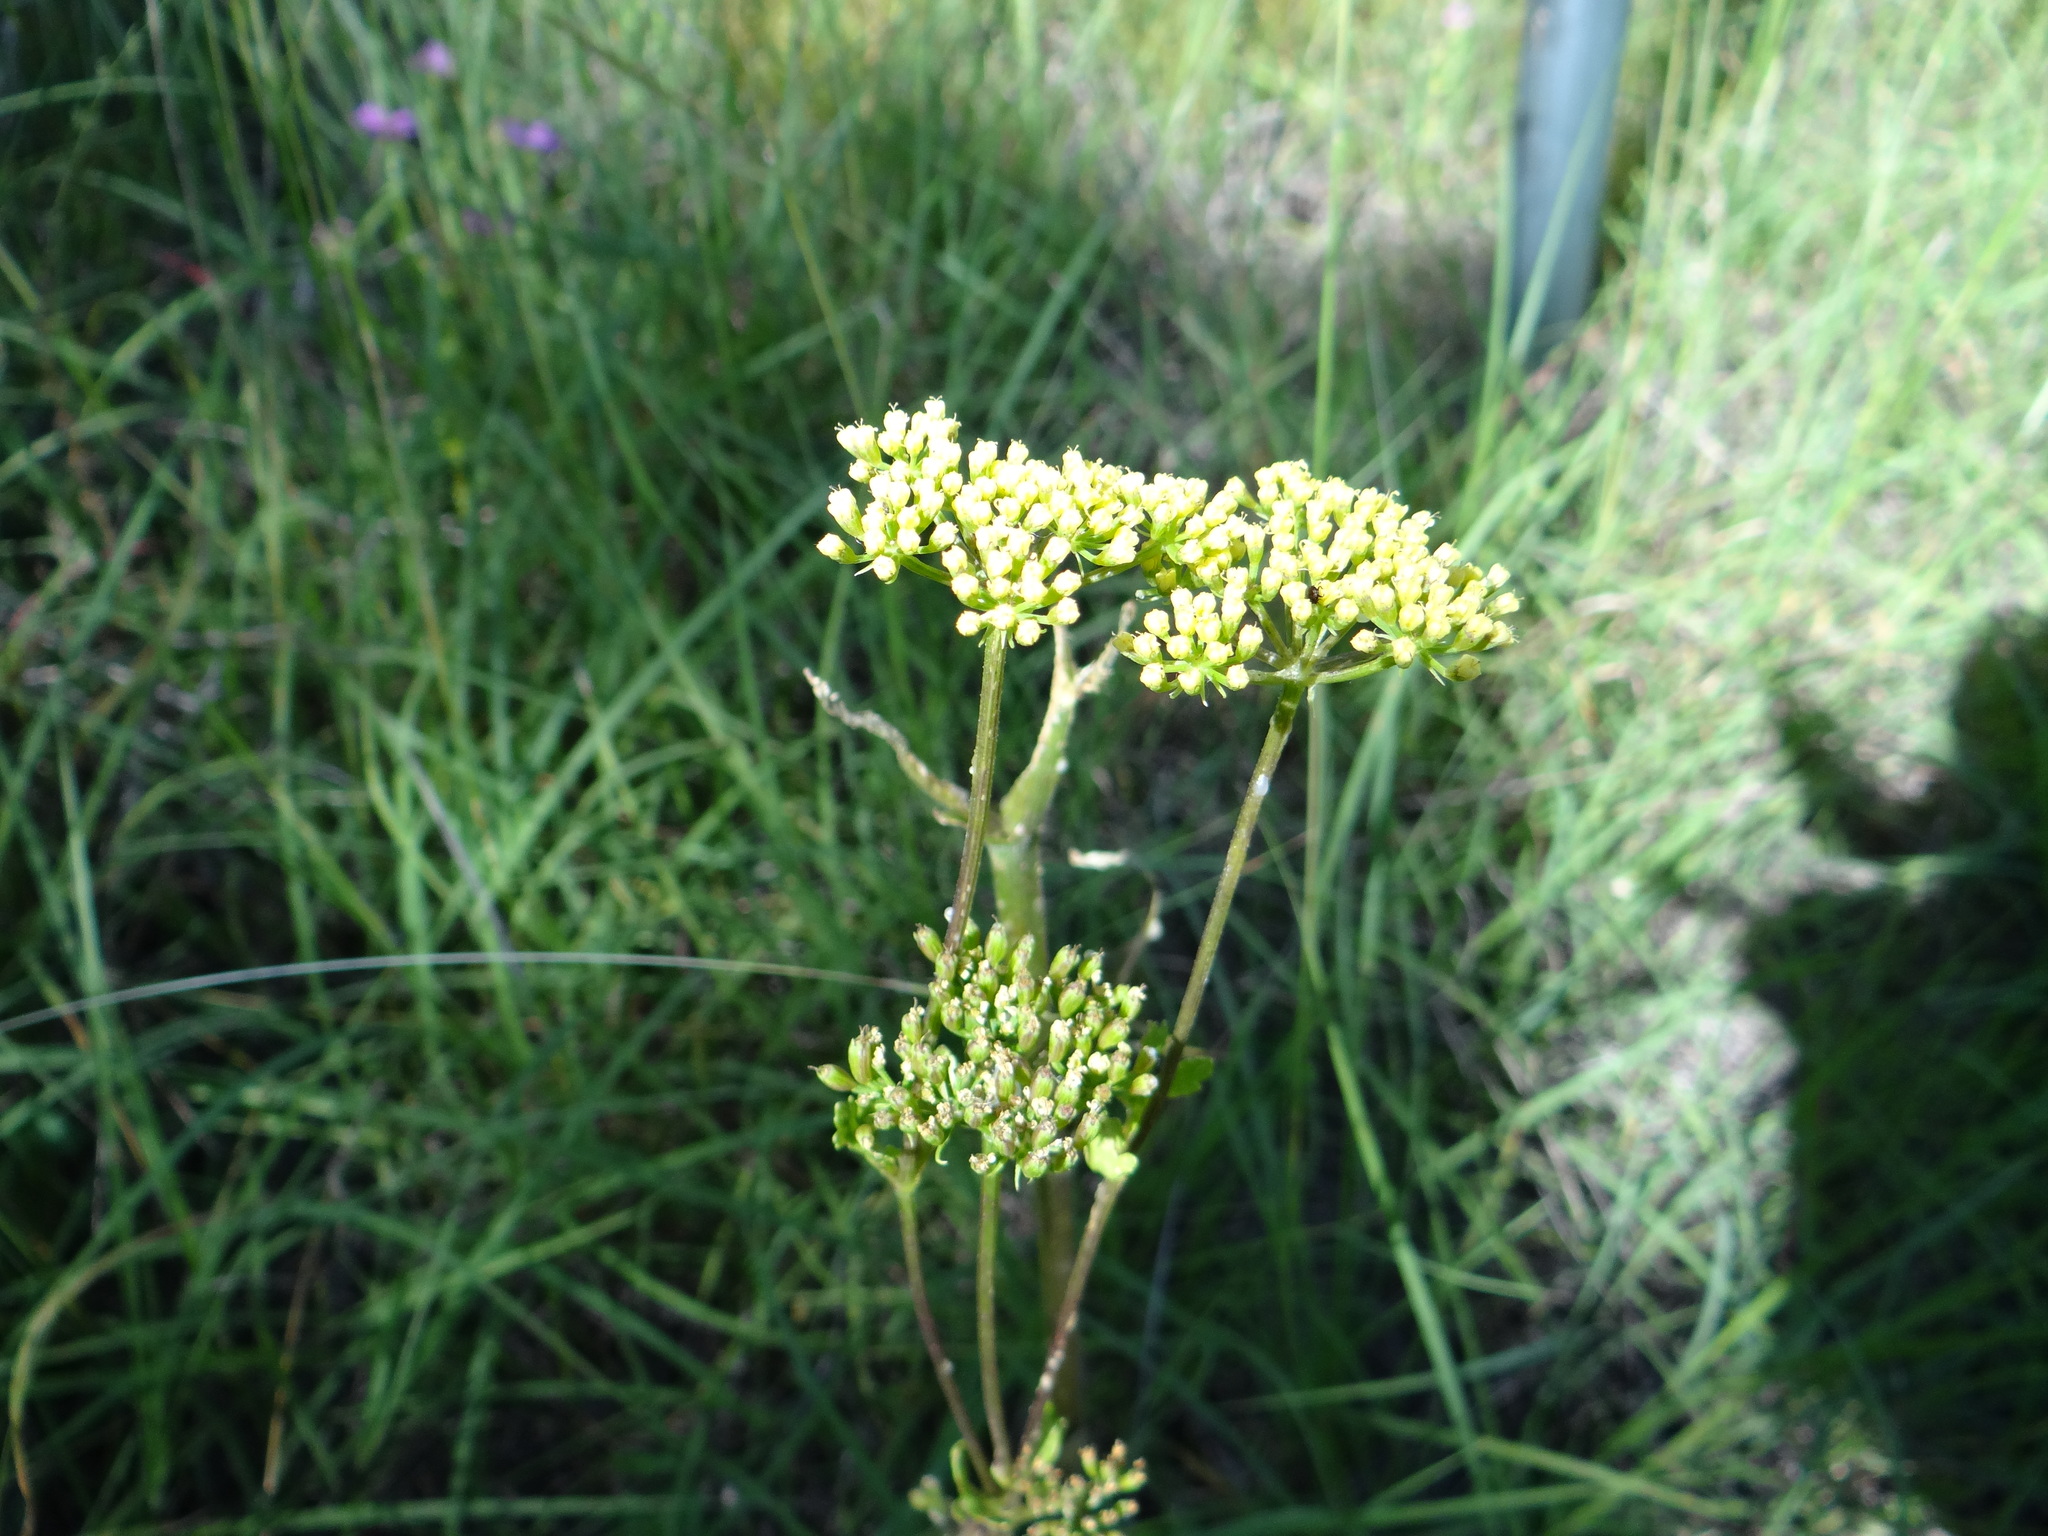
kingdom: Plantae
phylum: Tracheophyta
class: Magnoliopsida
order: Apiales
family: Apiaceae
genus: Polytaenia
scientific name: Polytaenia texana
